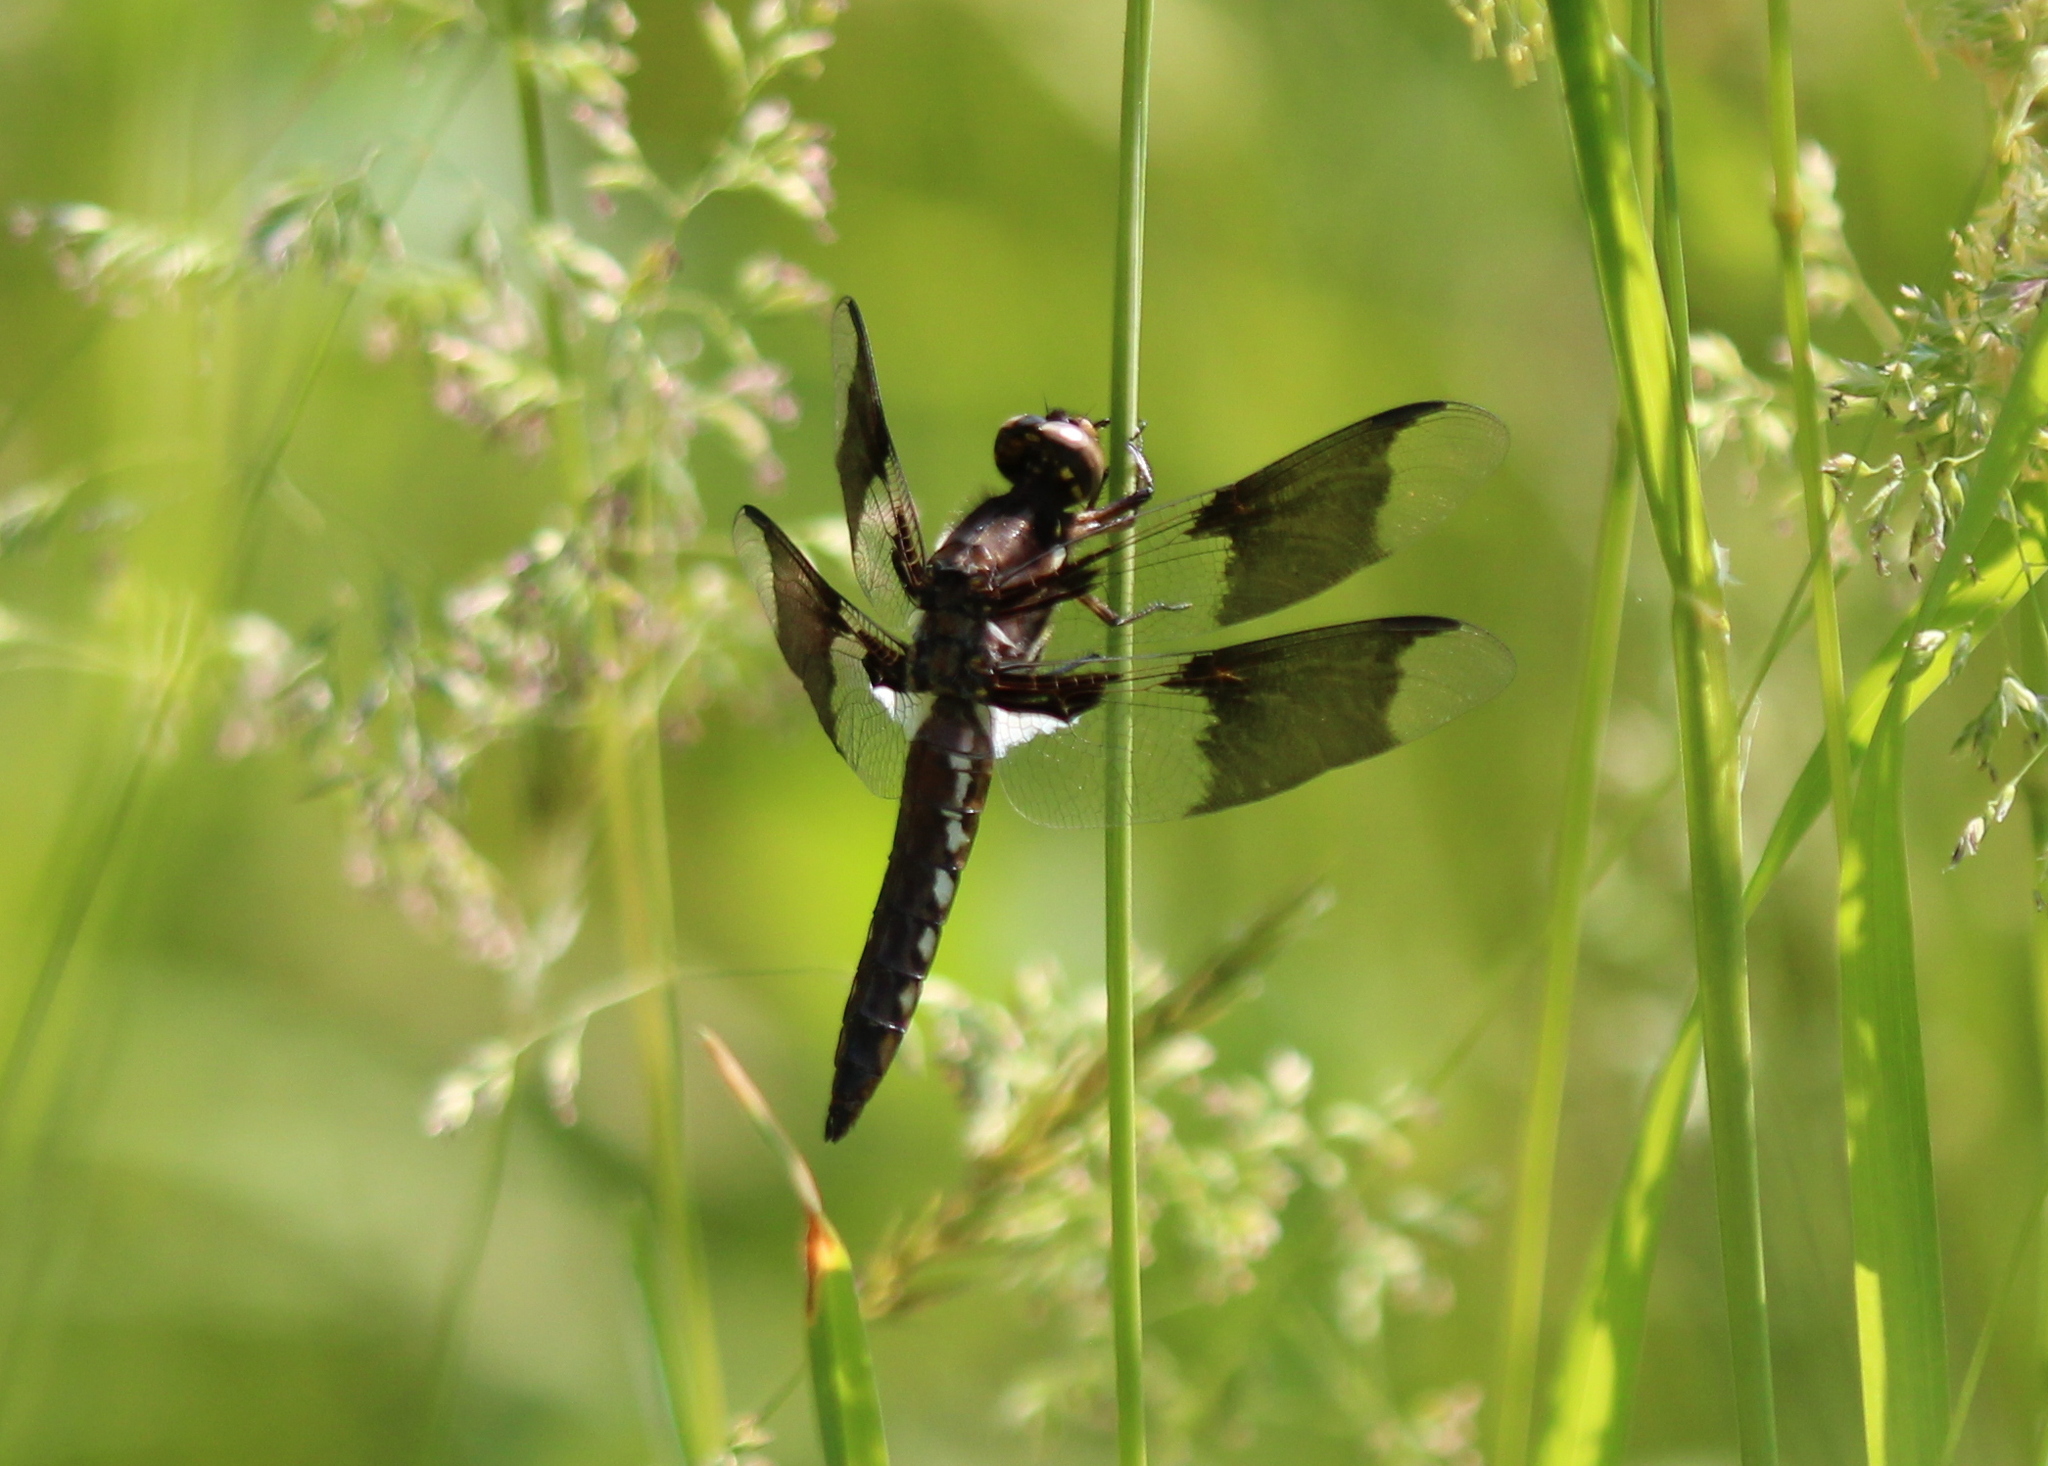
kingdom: Animalia
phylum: Arthropoda
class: Insecta
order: Odonata
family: Libellulidae
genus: Plathemis
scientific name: Plathemis lydia
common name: Common whitetail
